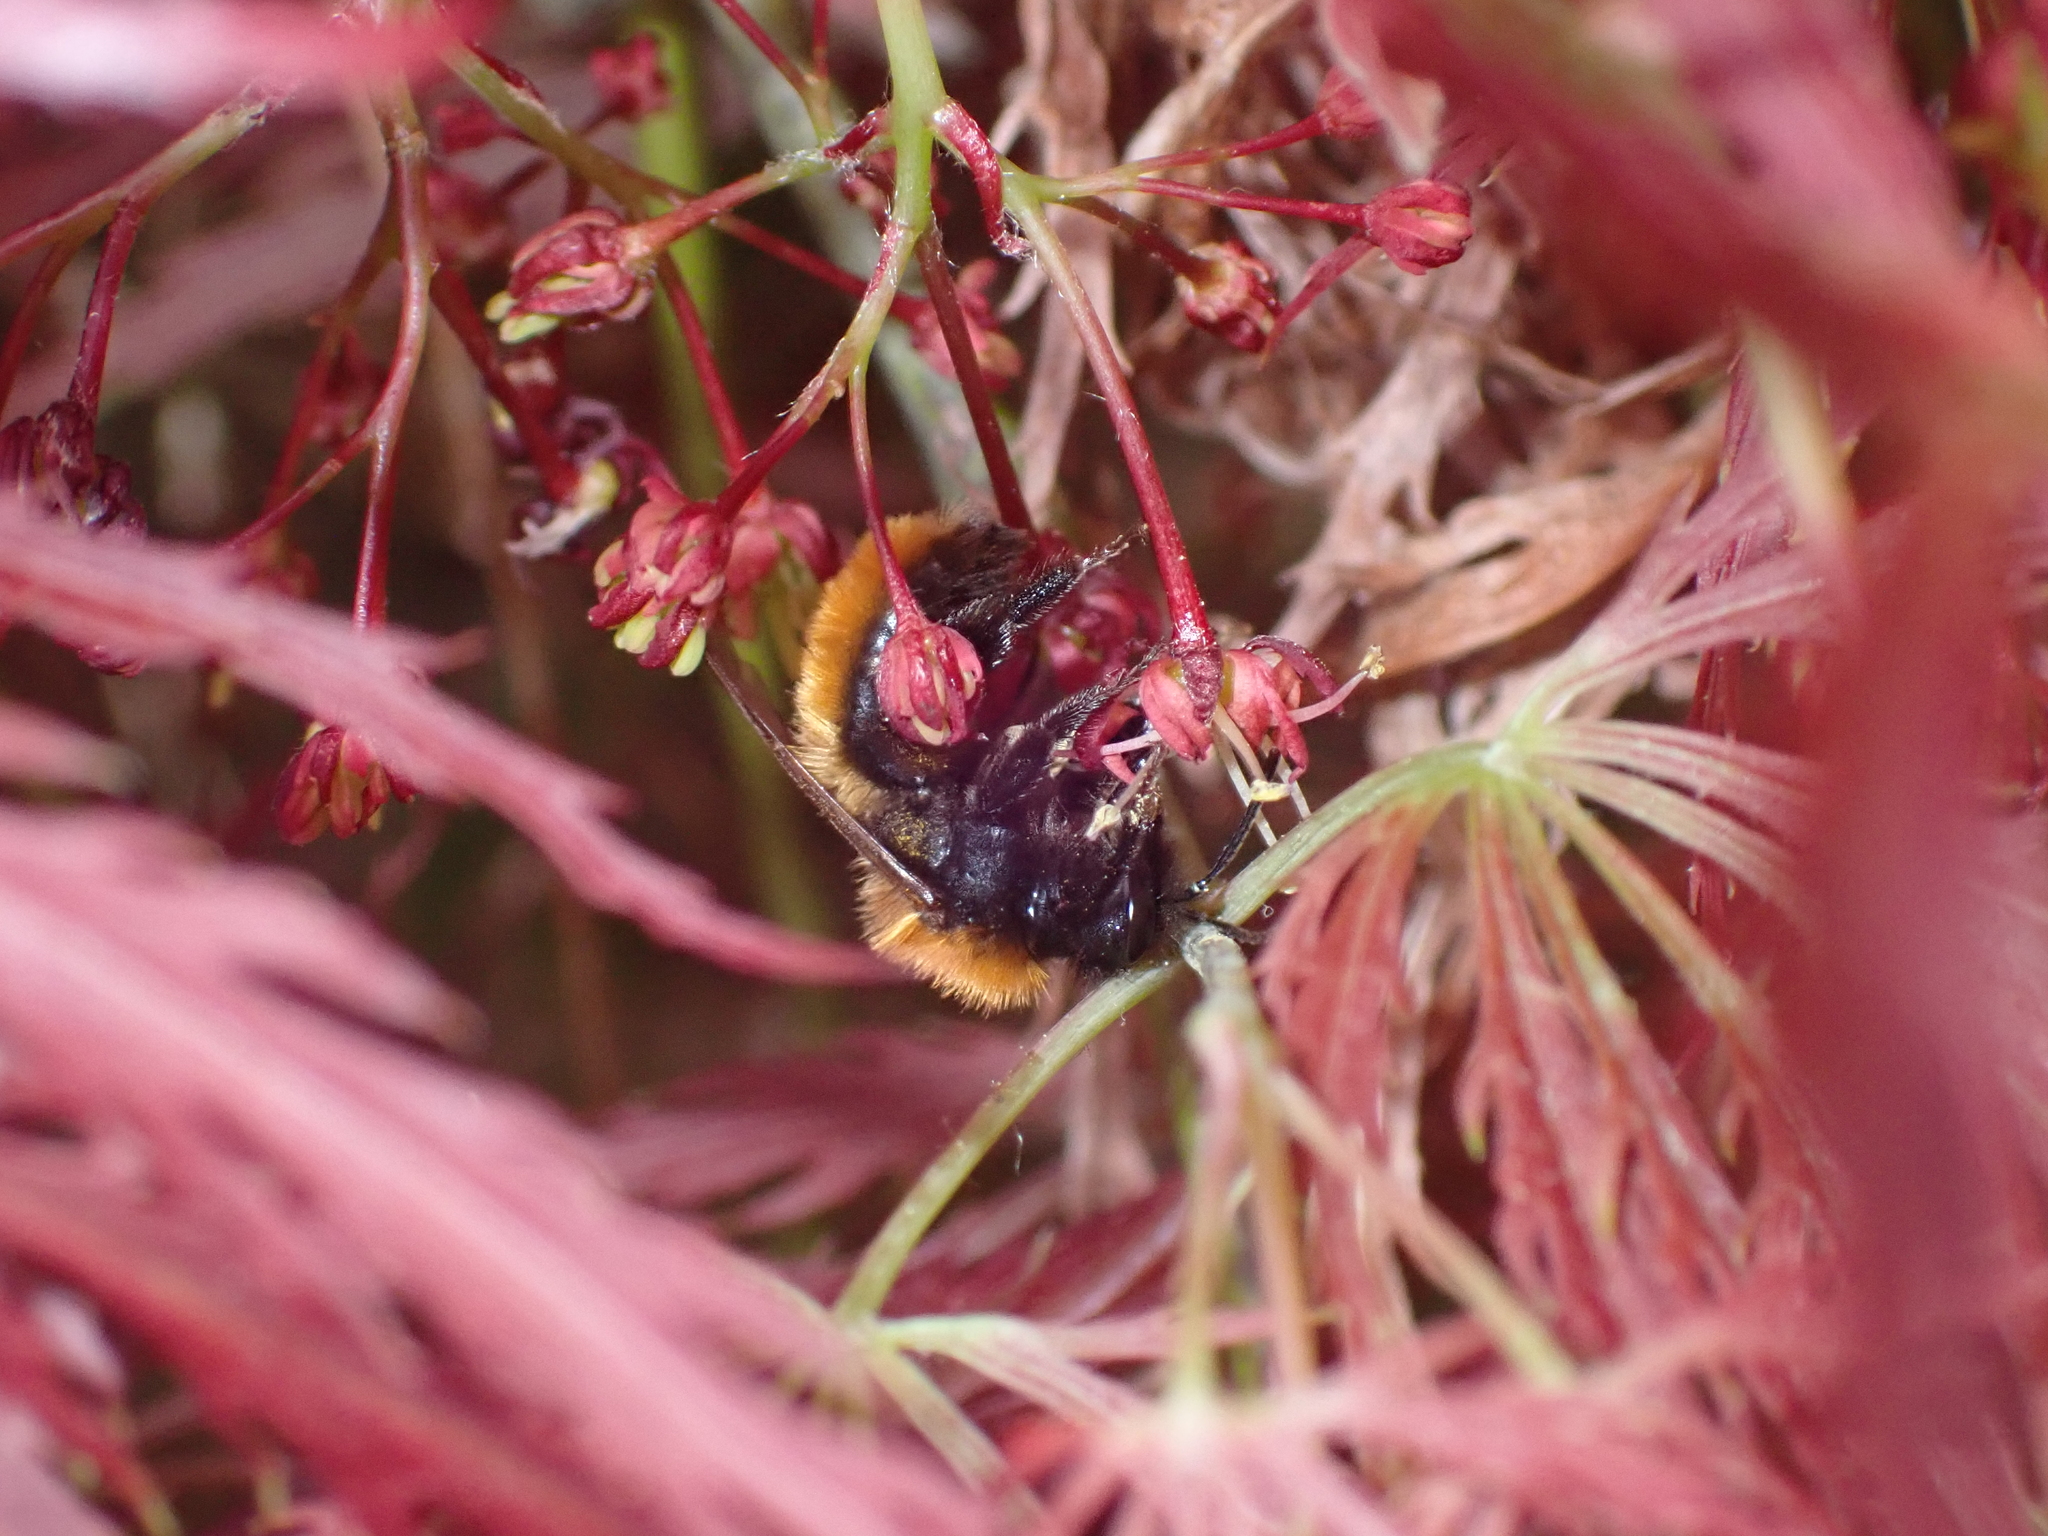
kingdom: Animalia
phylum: Arthropoda
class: Insecta
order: Hymenoptera
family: Andrenidae
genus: Andrena
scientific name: Andrena fulva
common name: Tawny mining bee
